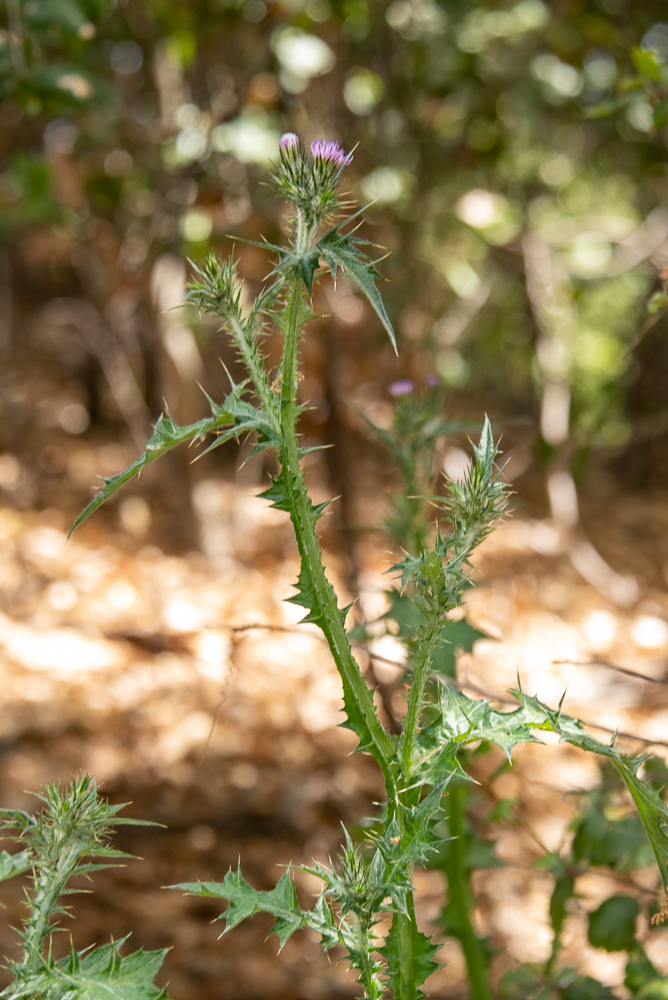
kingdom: Plantae
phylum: Tracheophyta
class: Magnoliopsida
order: Asterales
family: Asteraceae
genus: Carduus
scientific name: Carduus pycnocephalus
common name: Plymouth thistle
